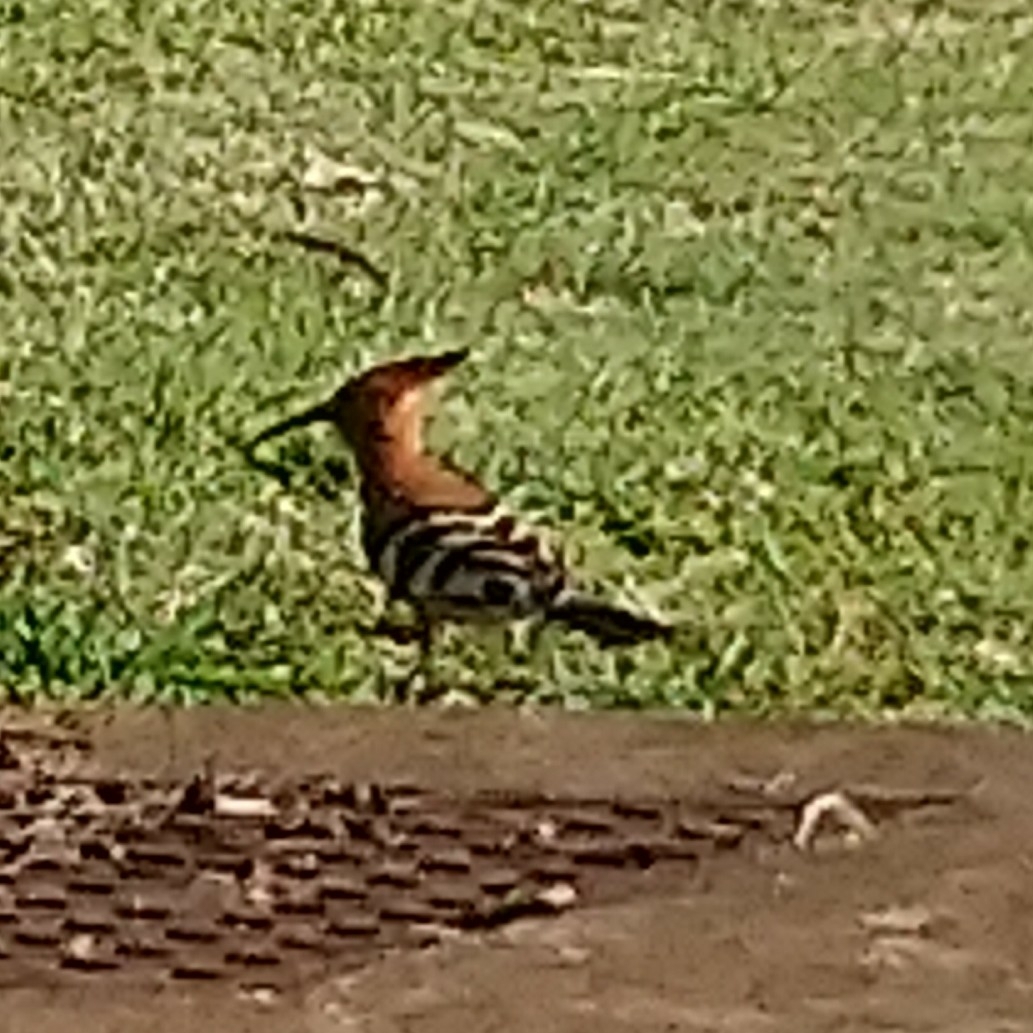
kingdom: Animalia
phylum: Chordata
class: Aves
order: Bucerotiformes
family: Upupidae
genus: Upupa
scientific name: Upupa africana
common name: African hoopoe
